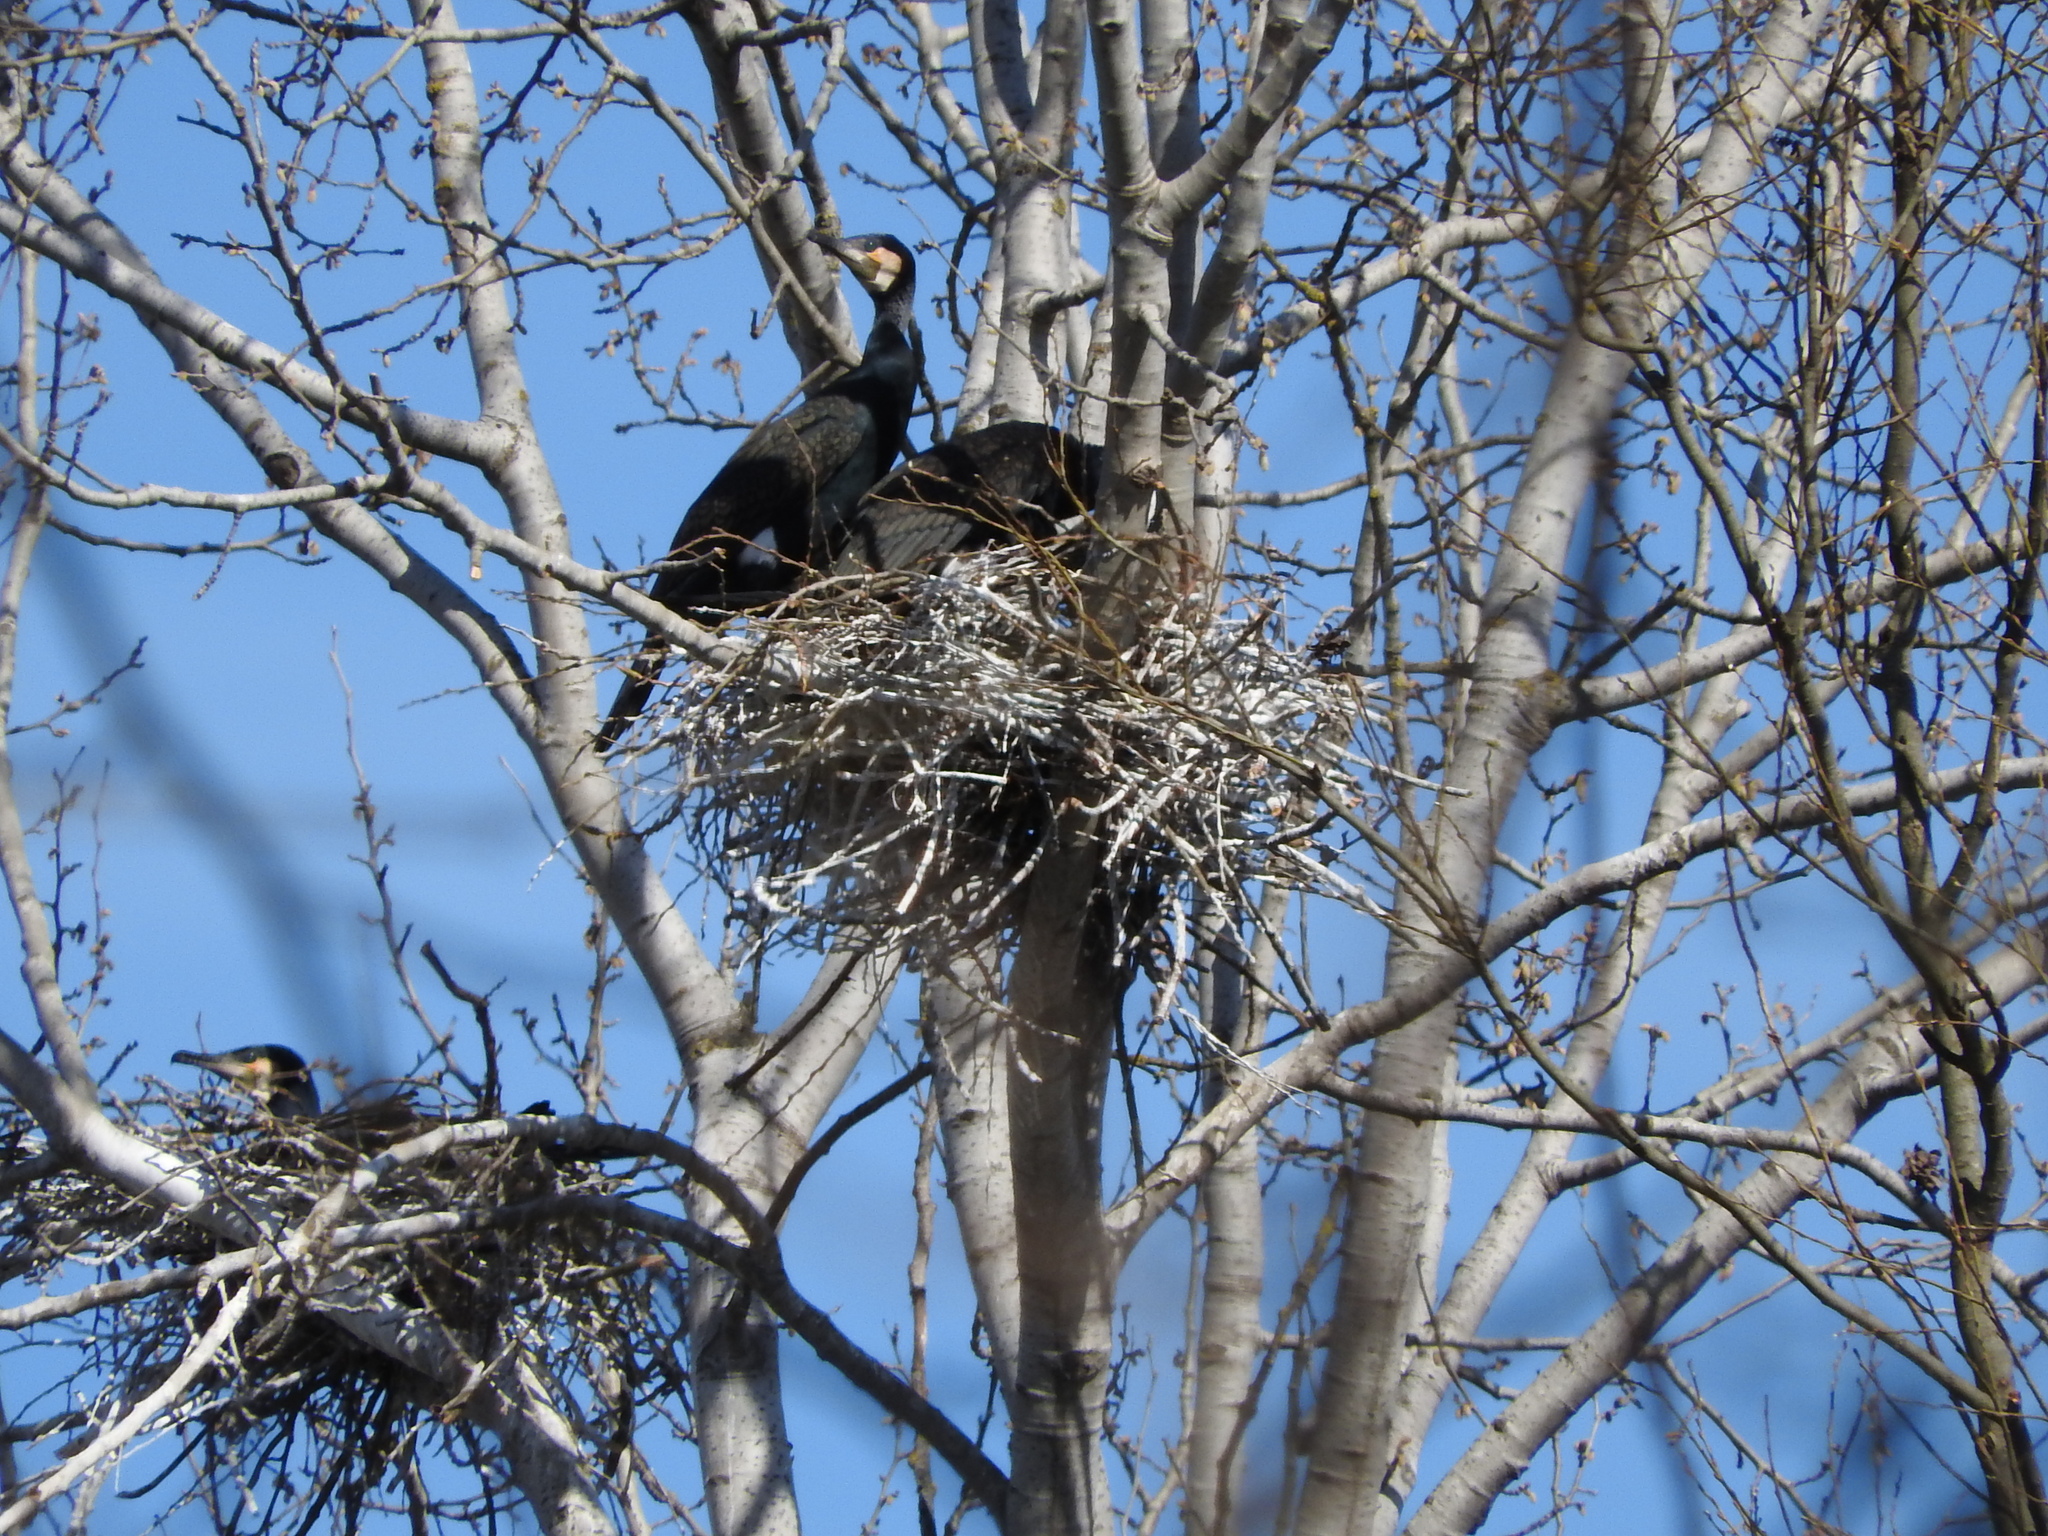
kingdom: Animalia
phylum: Chordata
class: Aves
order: Suliformes
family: Phalacrocoracidae
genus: Phalacrocorax
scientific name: Phalacrocorax carbo
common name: Great cormorant
